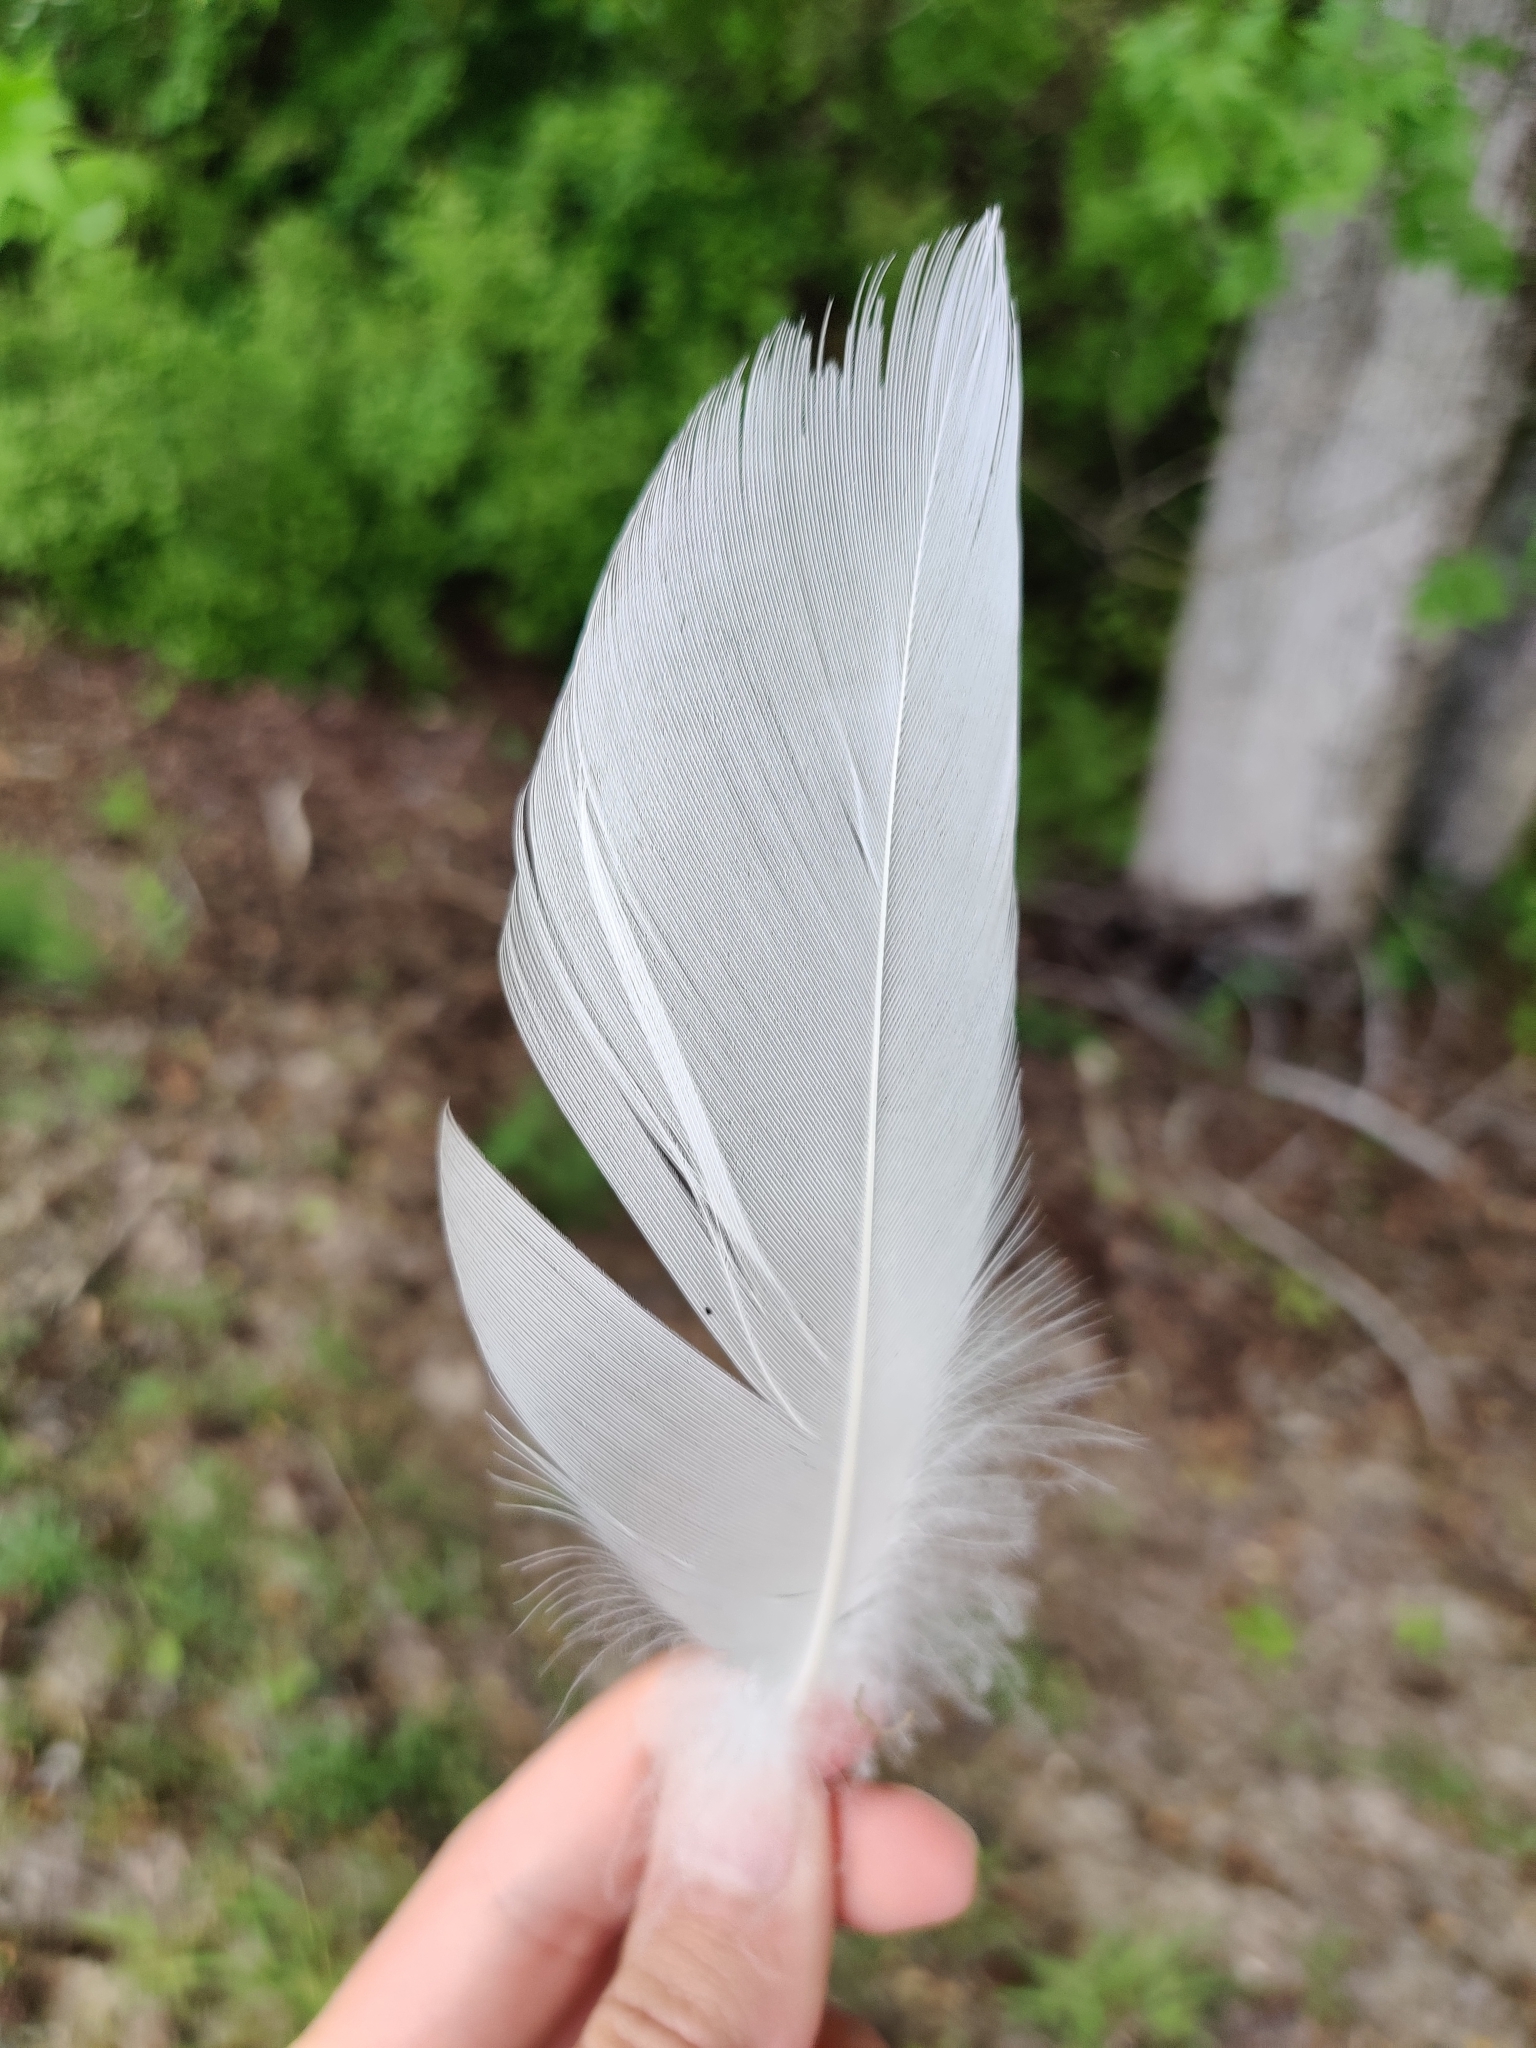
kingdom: Animalia
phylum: Chordata
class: Aves
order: Anseriformes
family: Anatidae
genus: Anas
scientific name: Anas platyrhynchos
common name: Mallard
